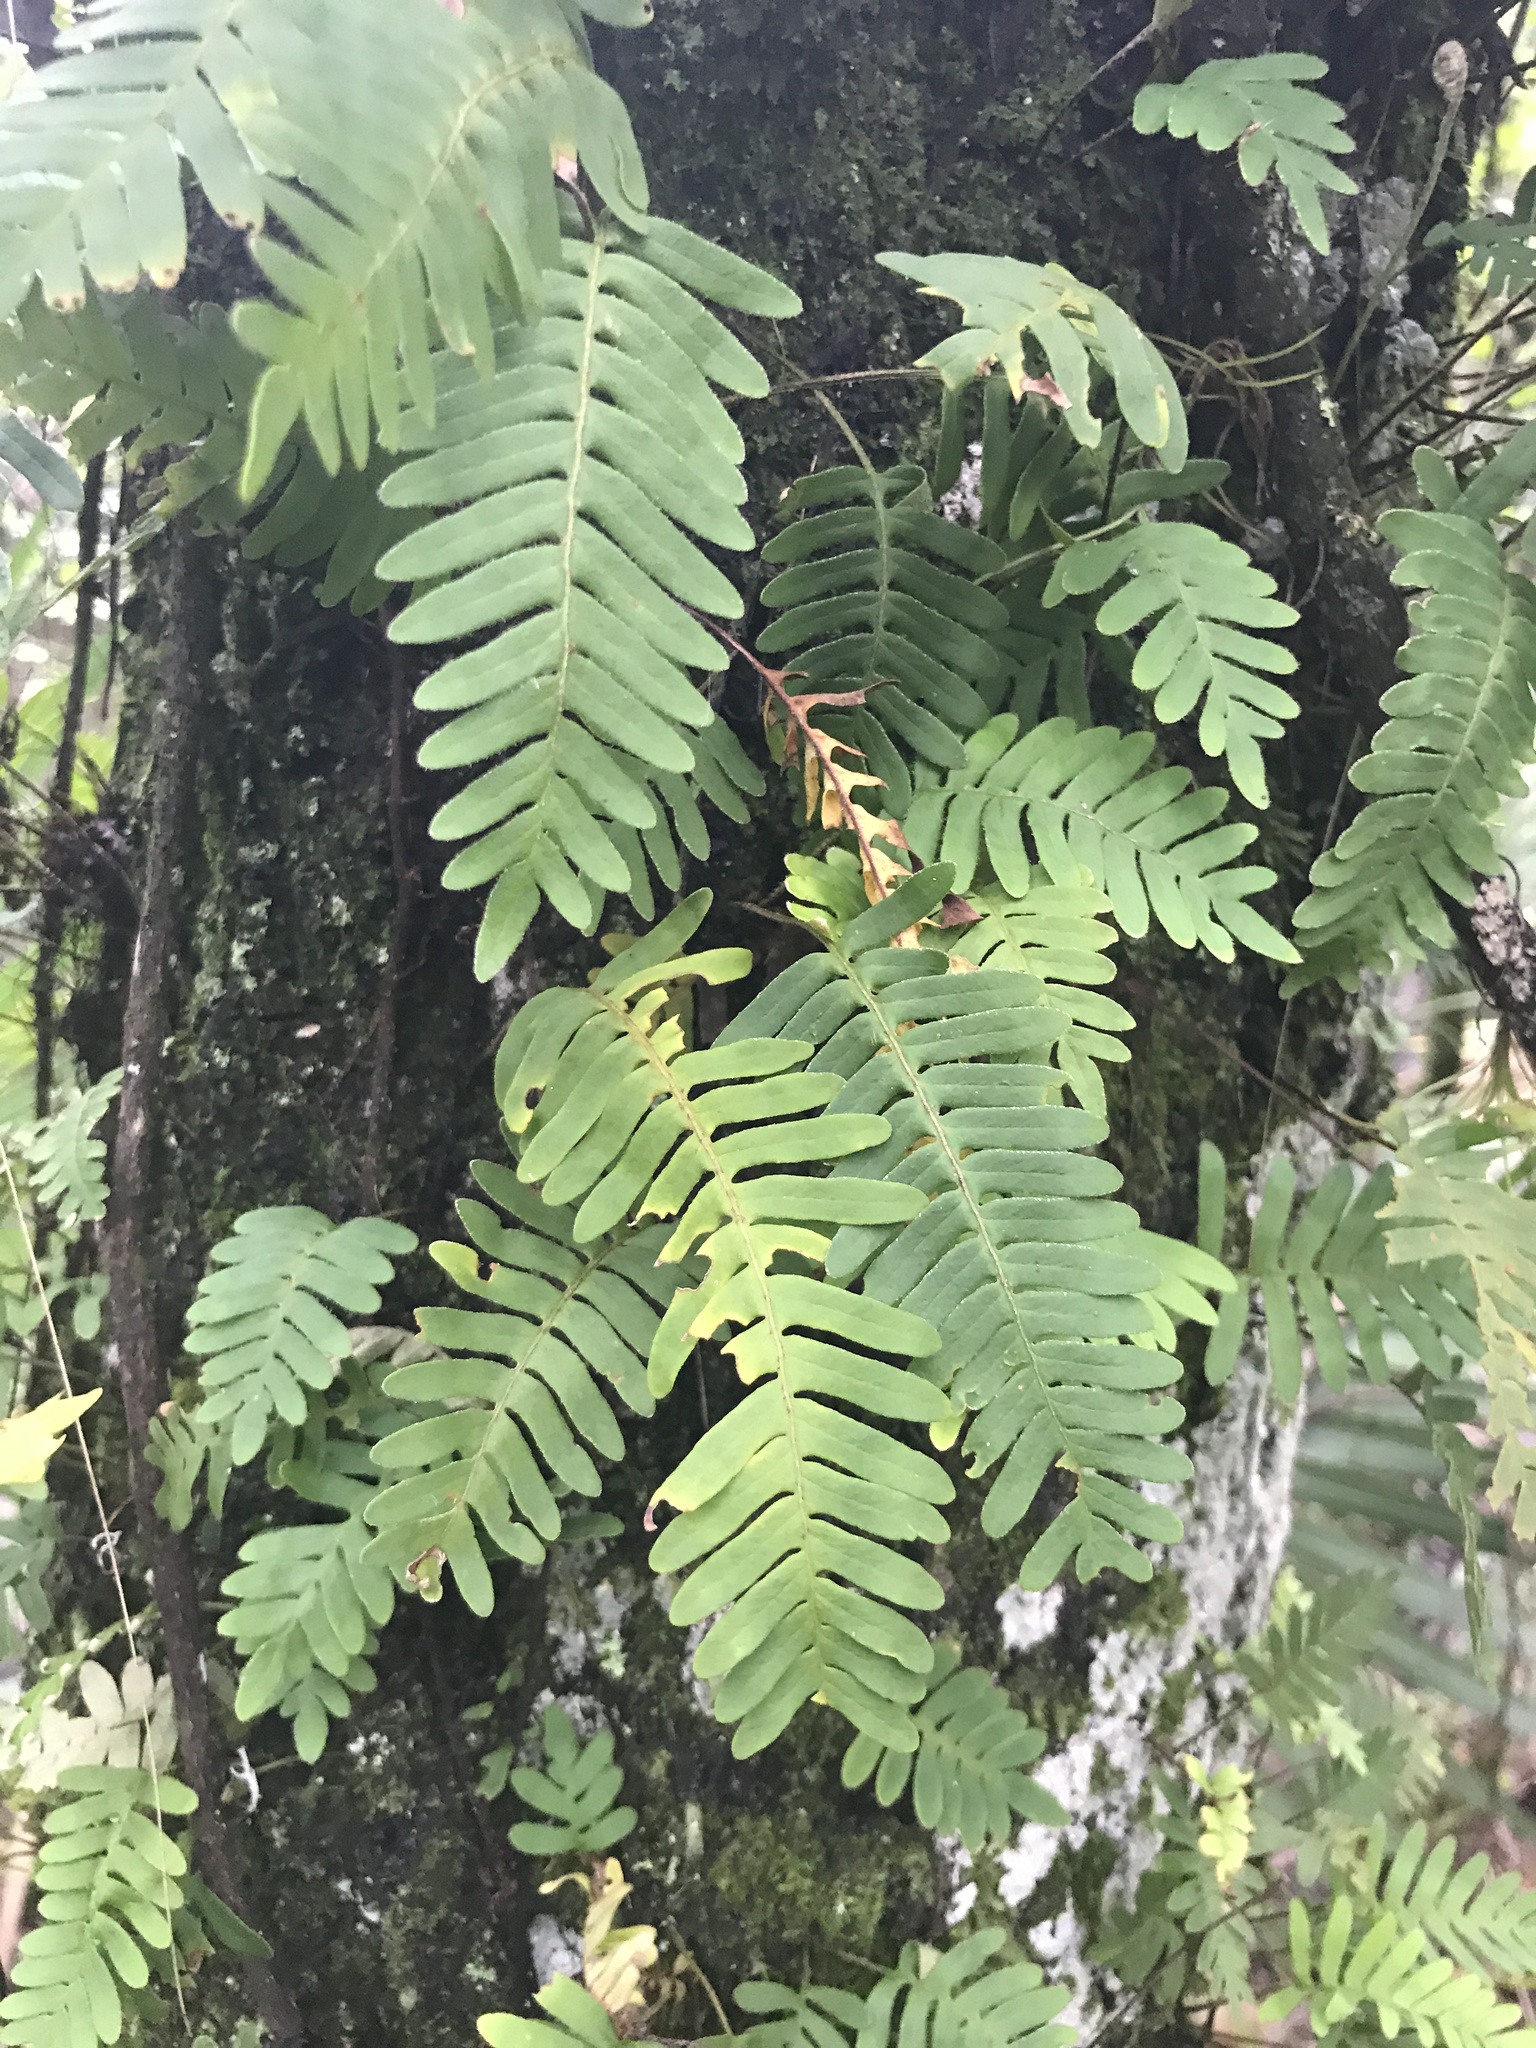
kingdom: Plantae
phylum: Tracheophyta
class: Polypodiopsida
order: Polypodiales
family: Polypodiaceae
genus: Pleopeltis
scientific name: Pleopeltis michauxiana
